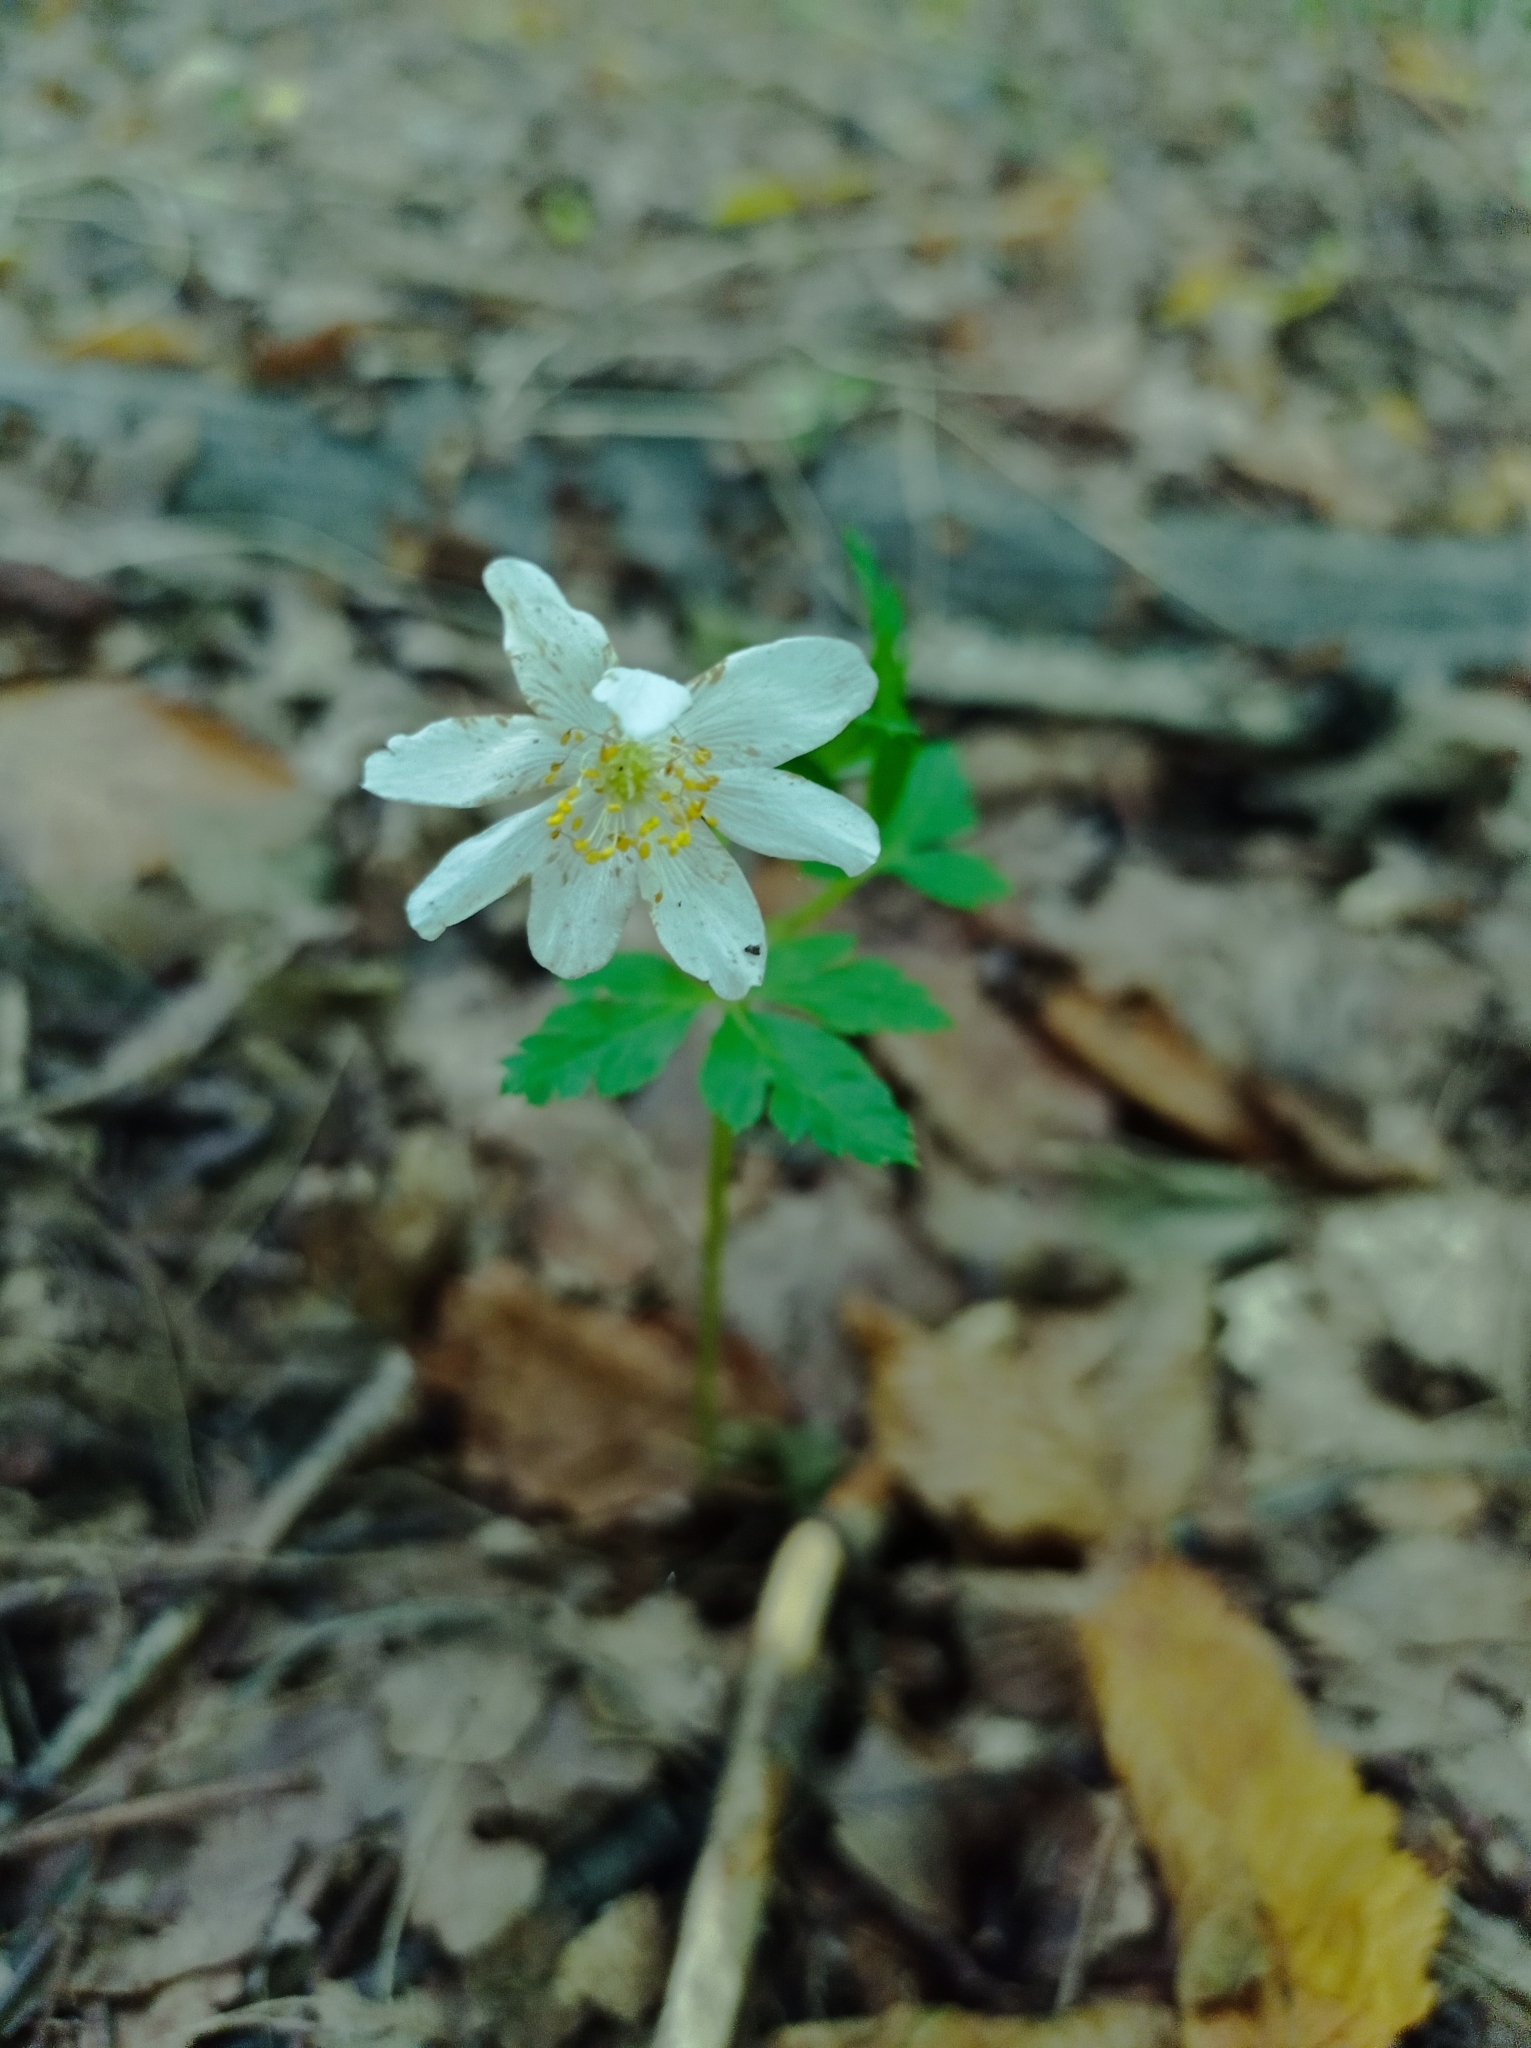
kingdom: Plantae
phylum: Tracheophyta
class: Magnoliopsida
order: Ranunculales
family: Ranunculaceae
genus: Anemone
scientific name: Anemone nemorosa
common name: Wood anemone
